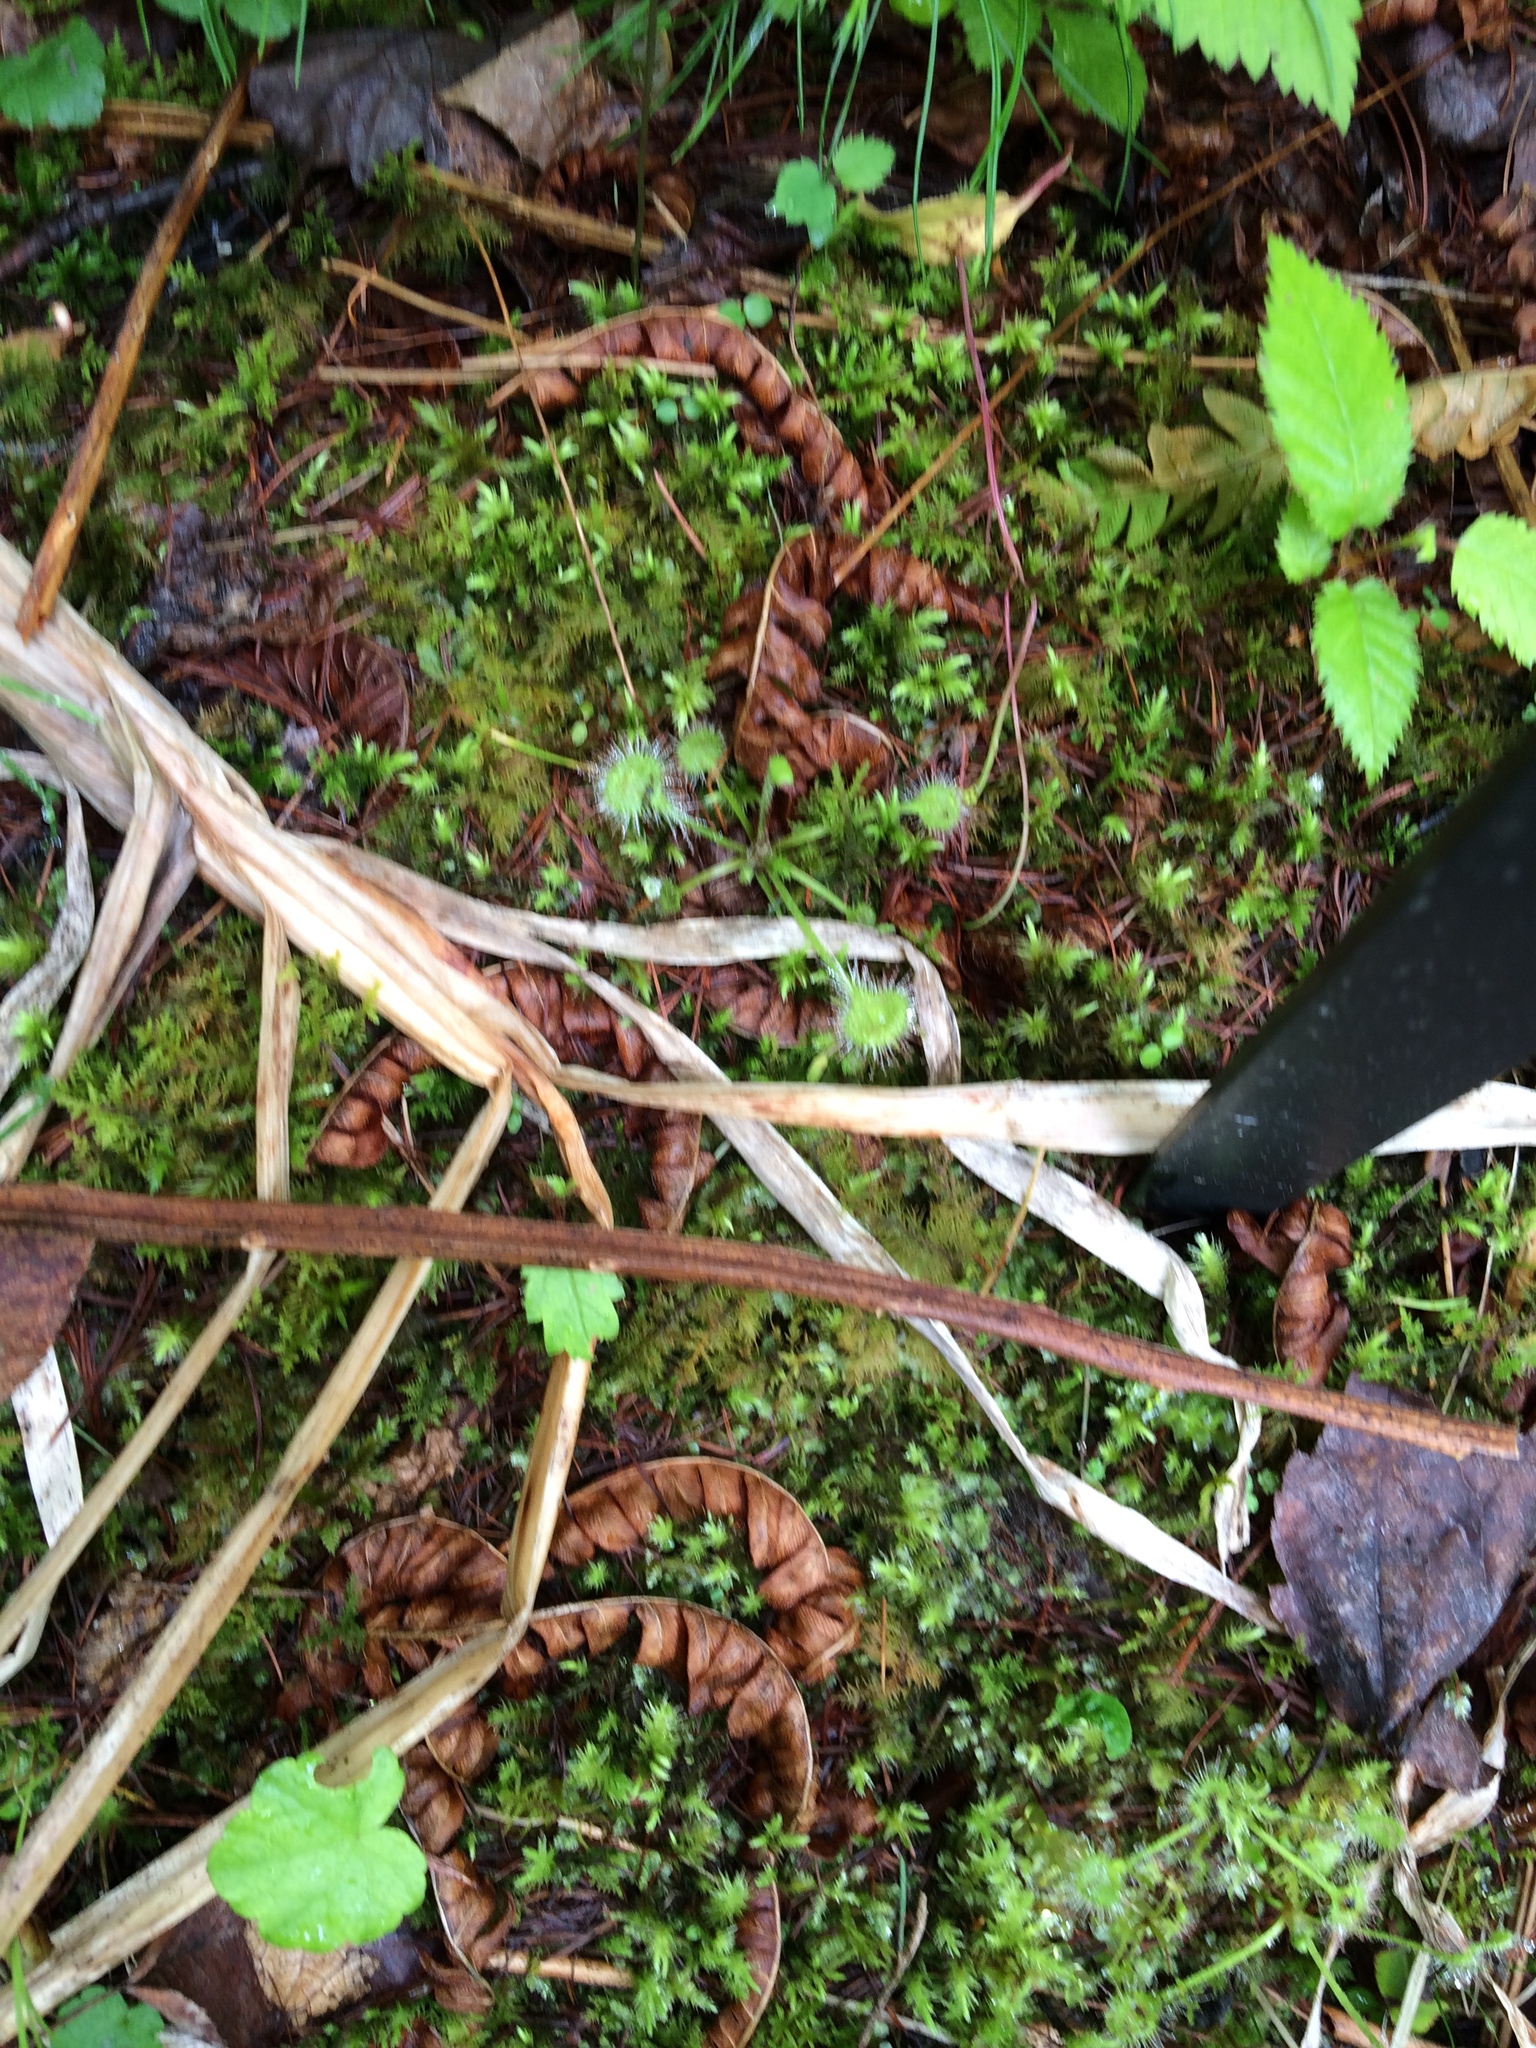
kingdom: Plantae
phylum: Tracheophyta
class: Magnoliopsida
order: Caryophyllales
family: Droseraceae
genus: Drosera
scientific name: Drosera rotundifolia
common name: Round-leaved sundew
